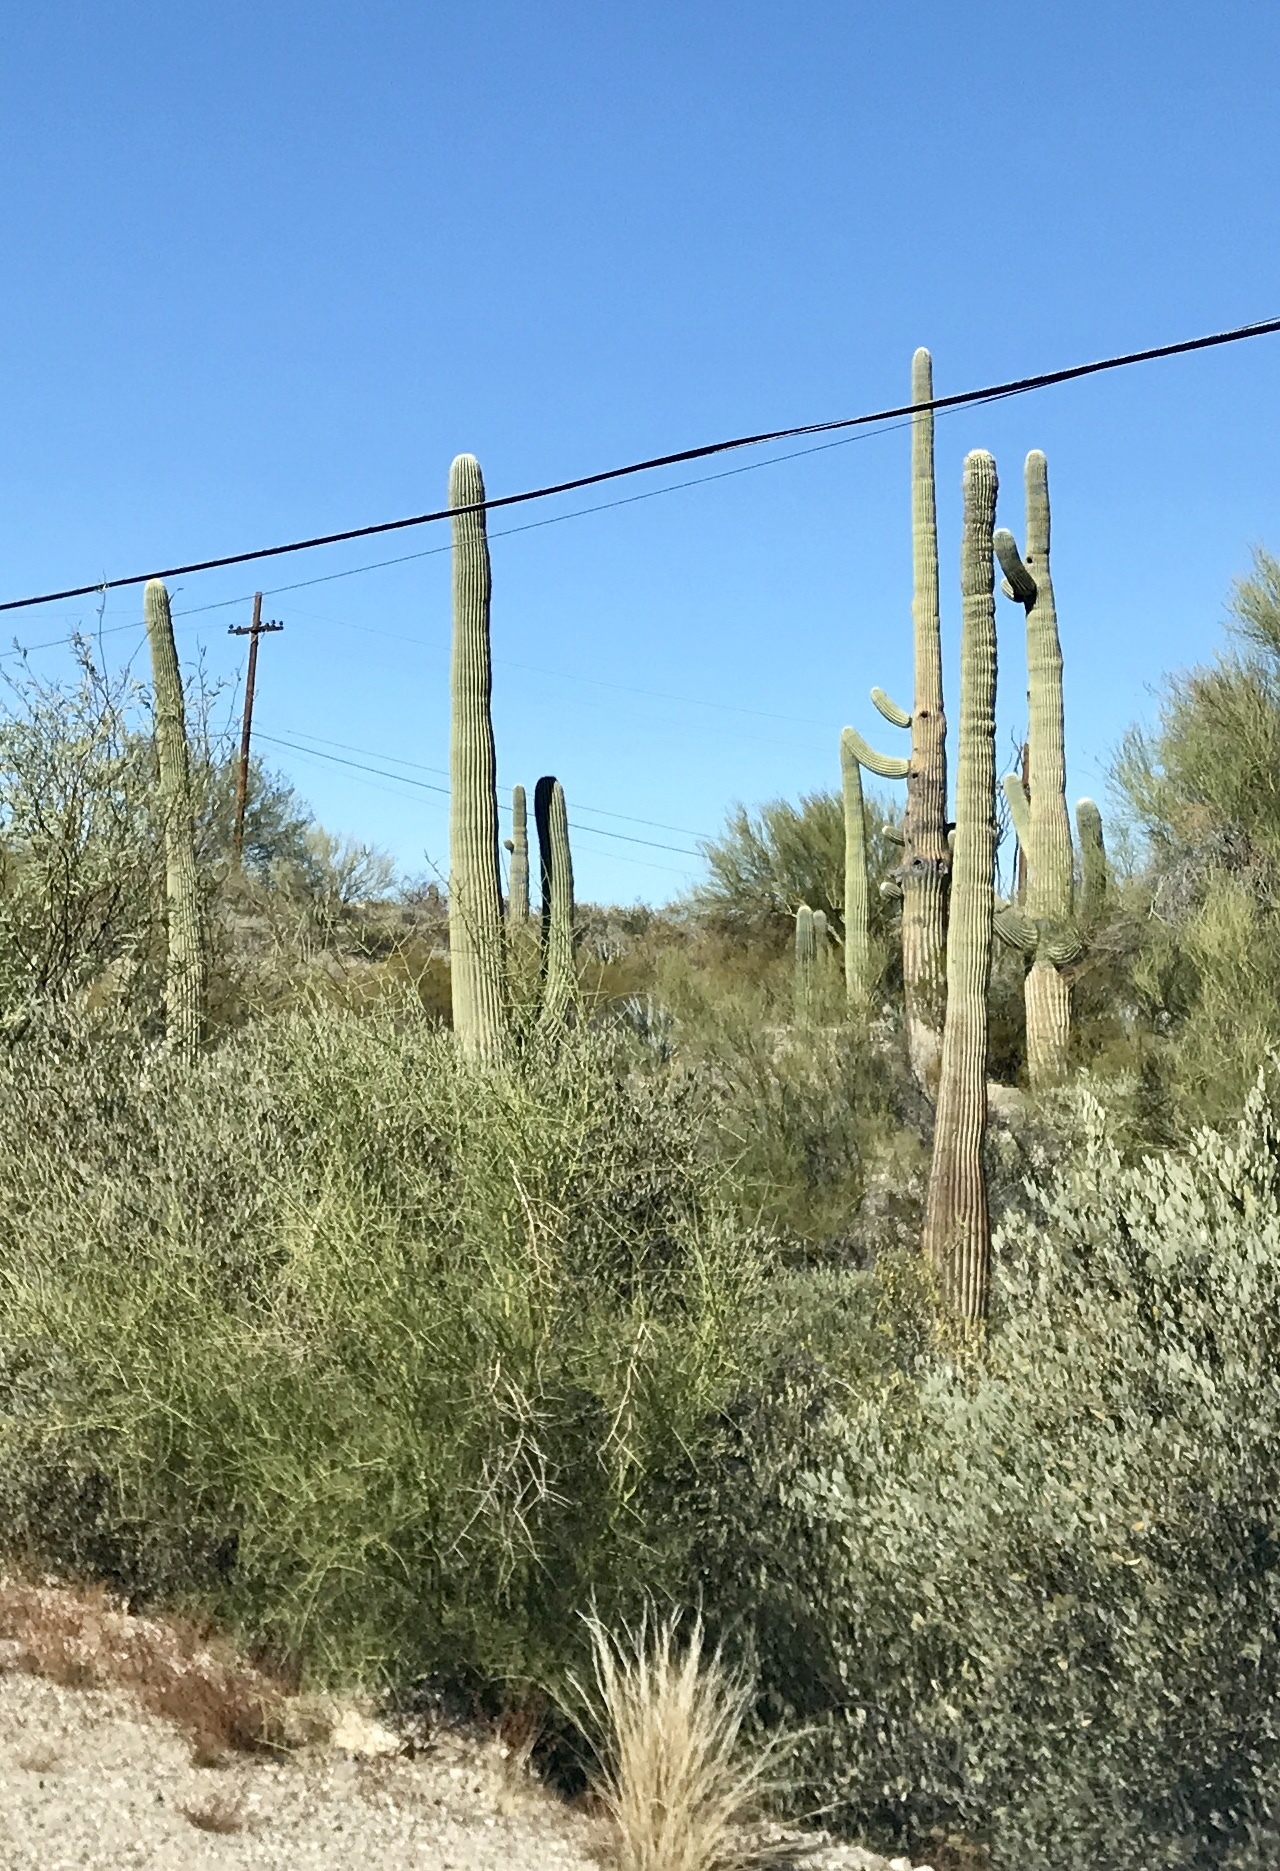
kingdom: Plantae
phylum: Tracheophyta
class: Magnoliopsida
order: Caryophyllales
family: Cactaceae
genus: Carnegiea
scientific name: Carnegiea gigantea
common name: Saguaro
